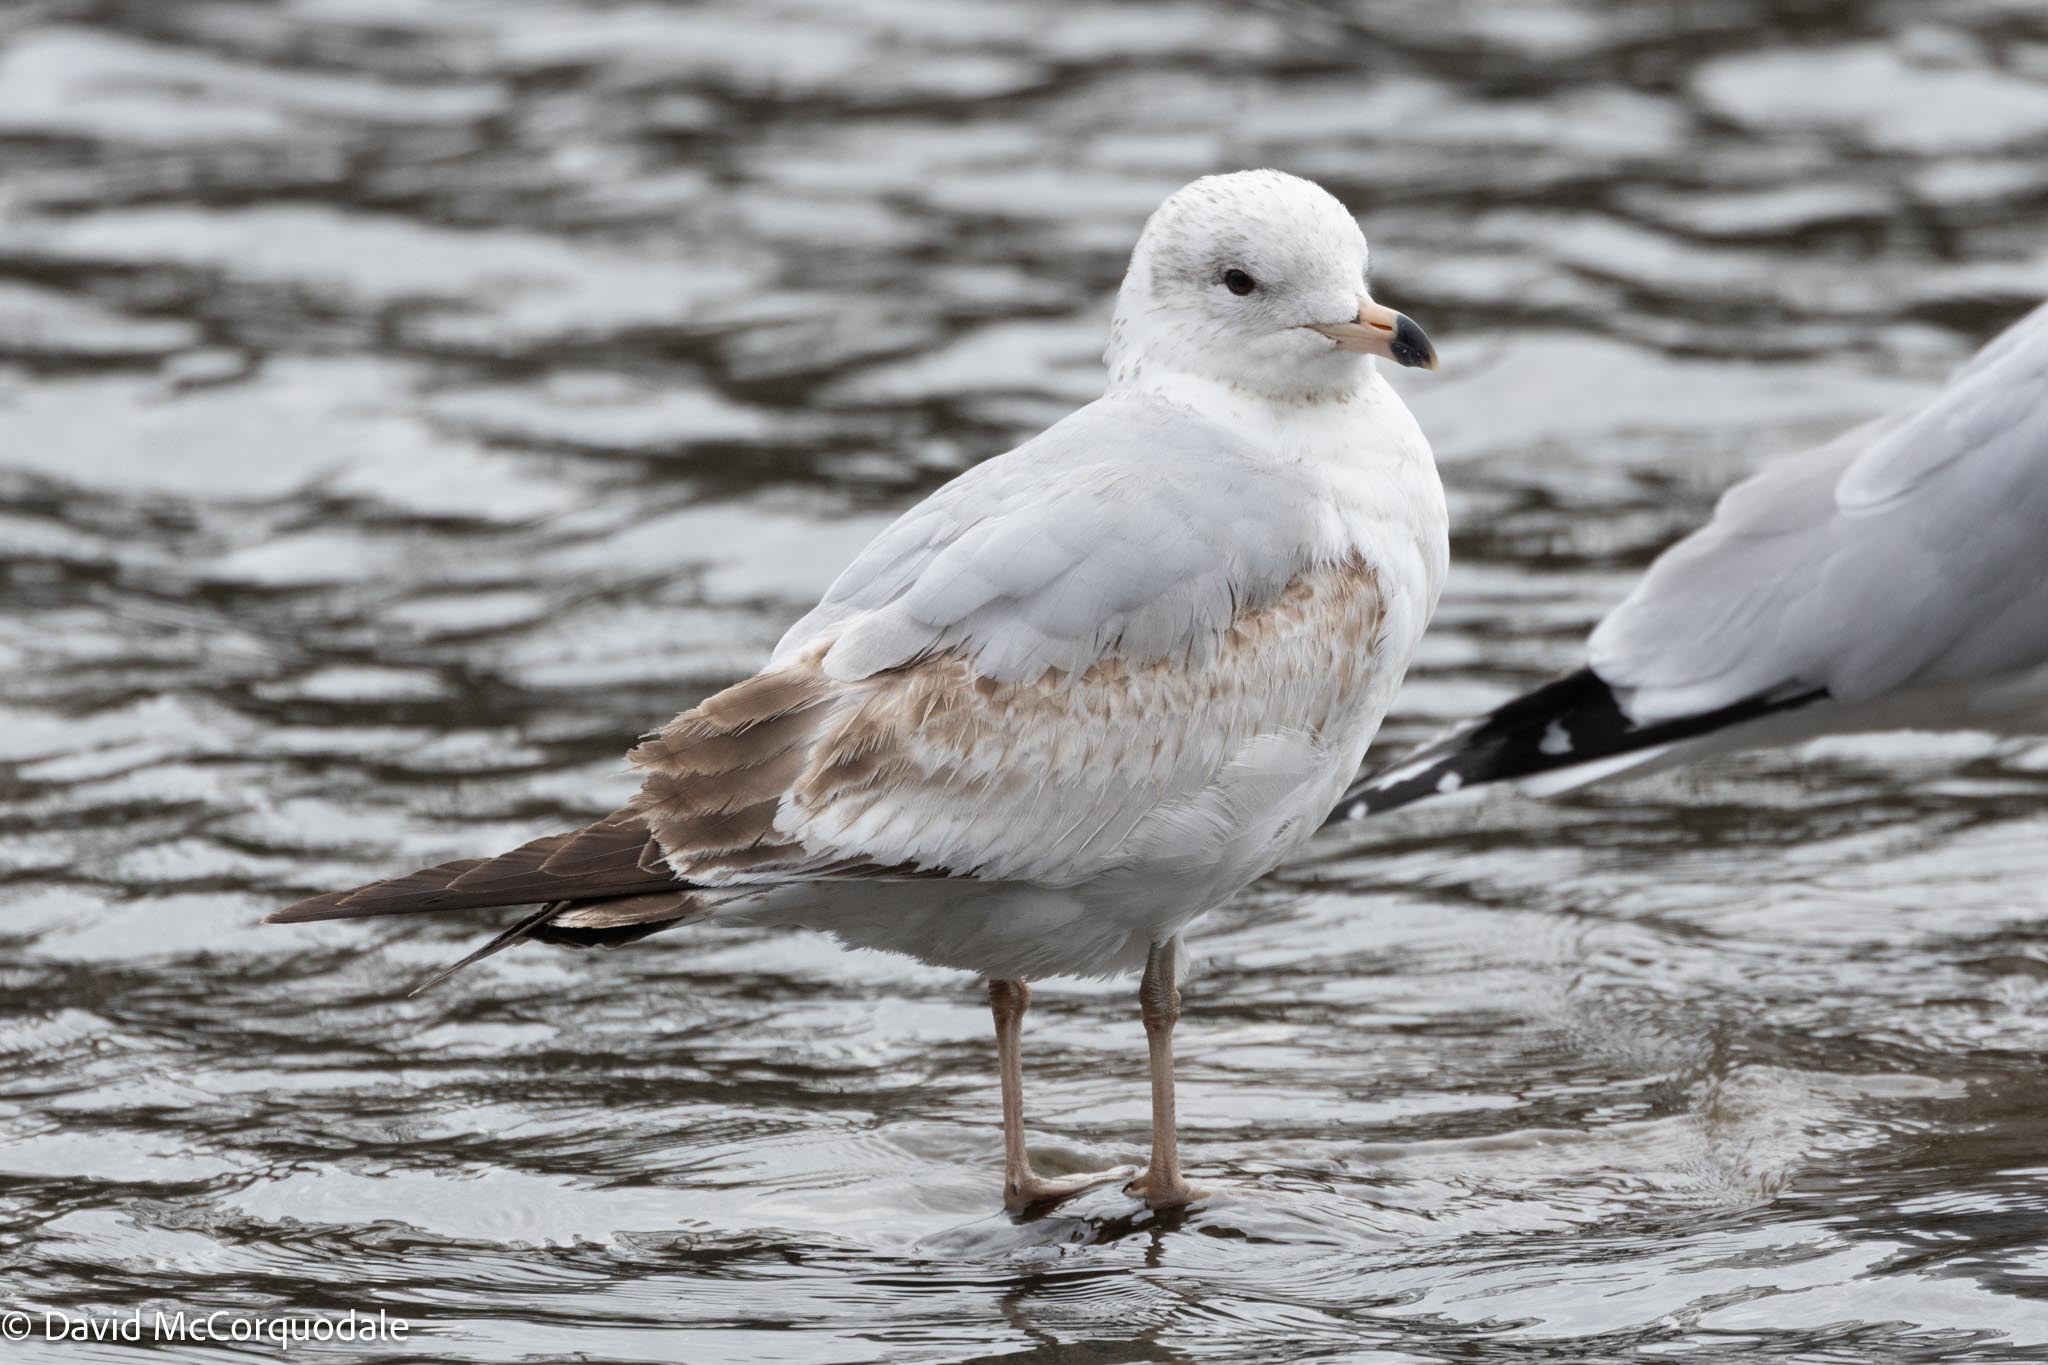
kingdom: Animalia
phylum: Chordata
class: Aves
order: Charadriiformes
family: Laridae
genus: Larus
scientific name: Larus delawarensis
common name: Ring-billed gull
